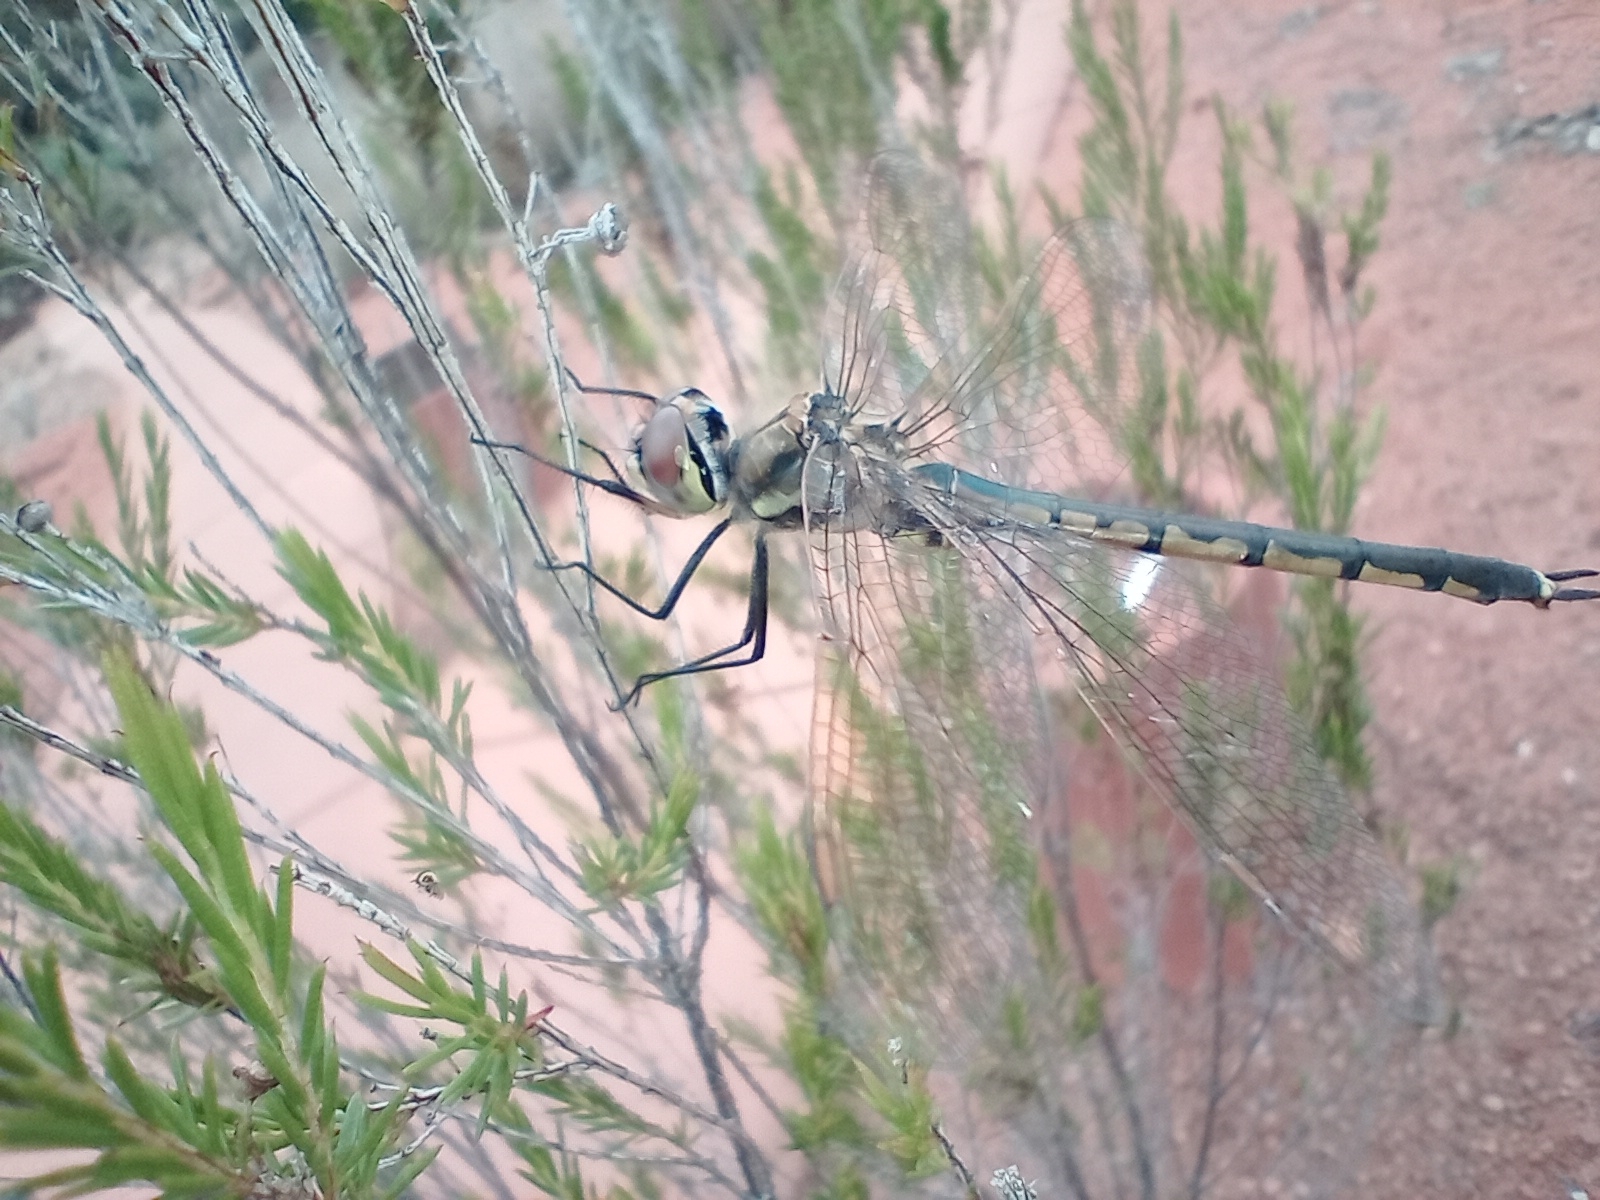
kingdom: Animalia
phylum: Arthropoda
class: Insecta
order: Odonata
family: Corduliidae
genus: Hemicordulia
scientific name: Hemicordulia tau
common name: Tau emerald
